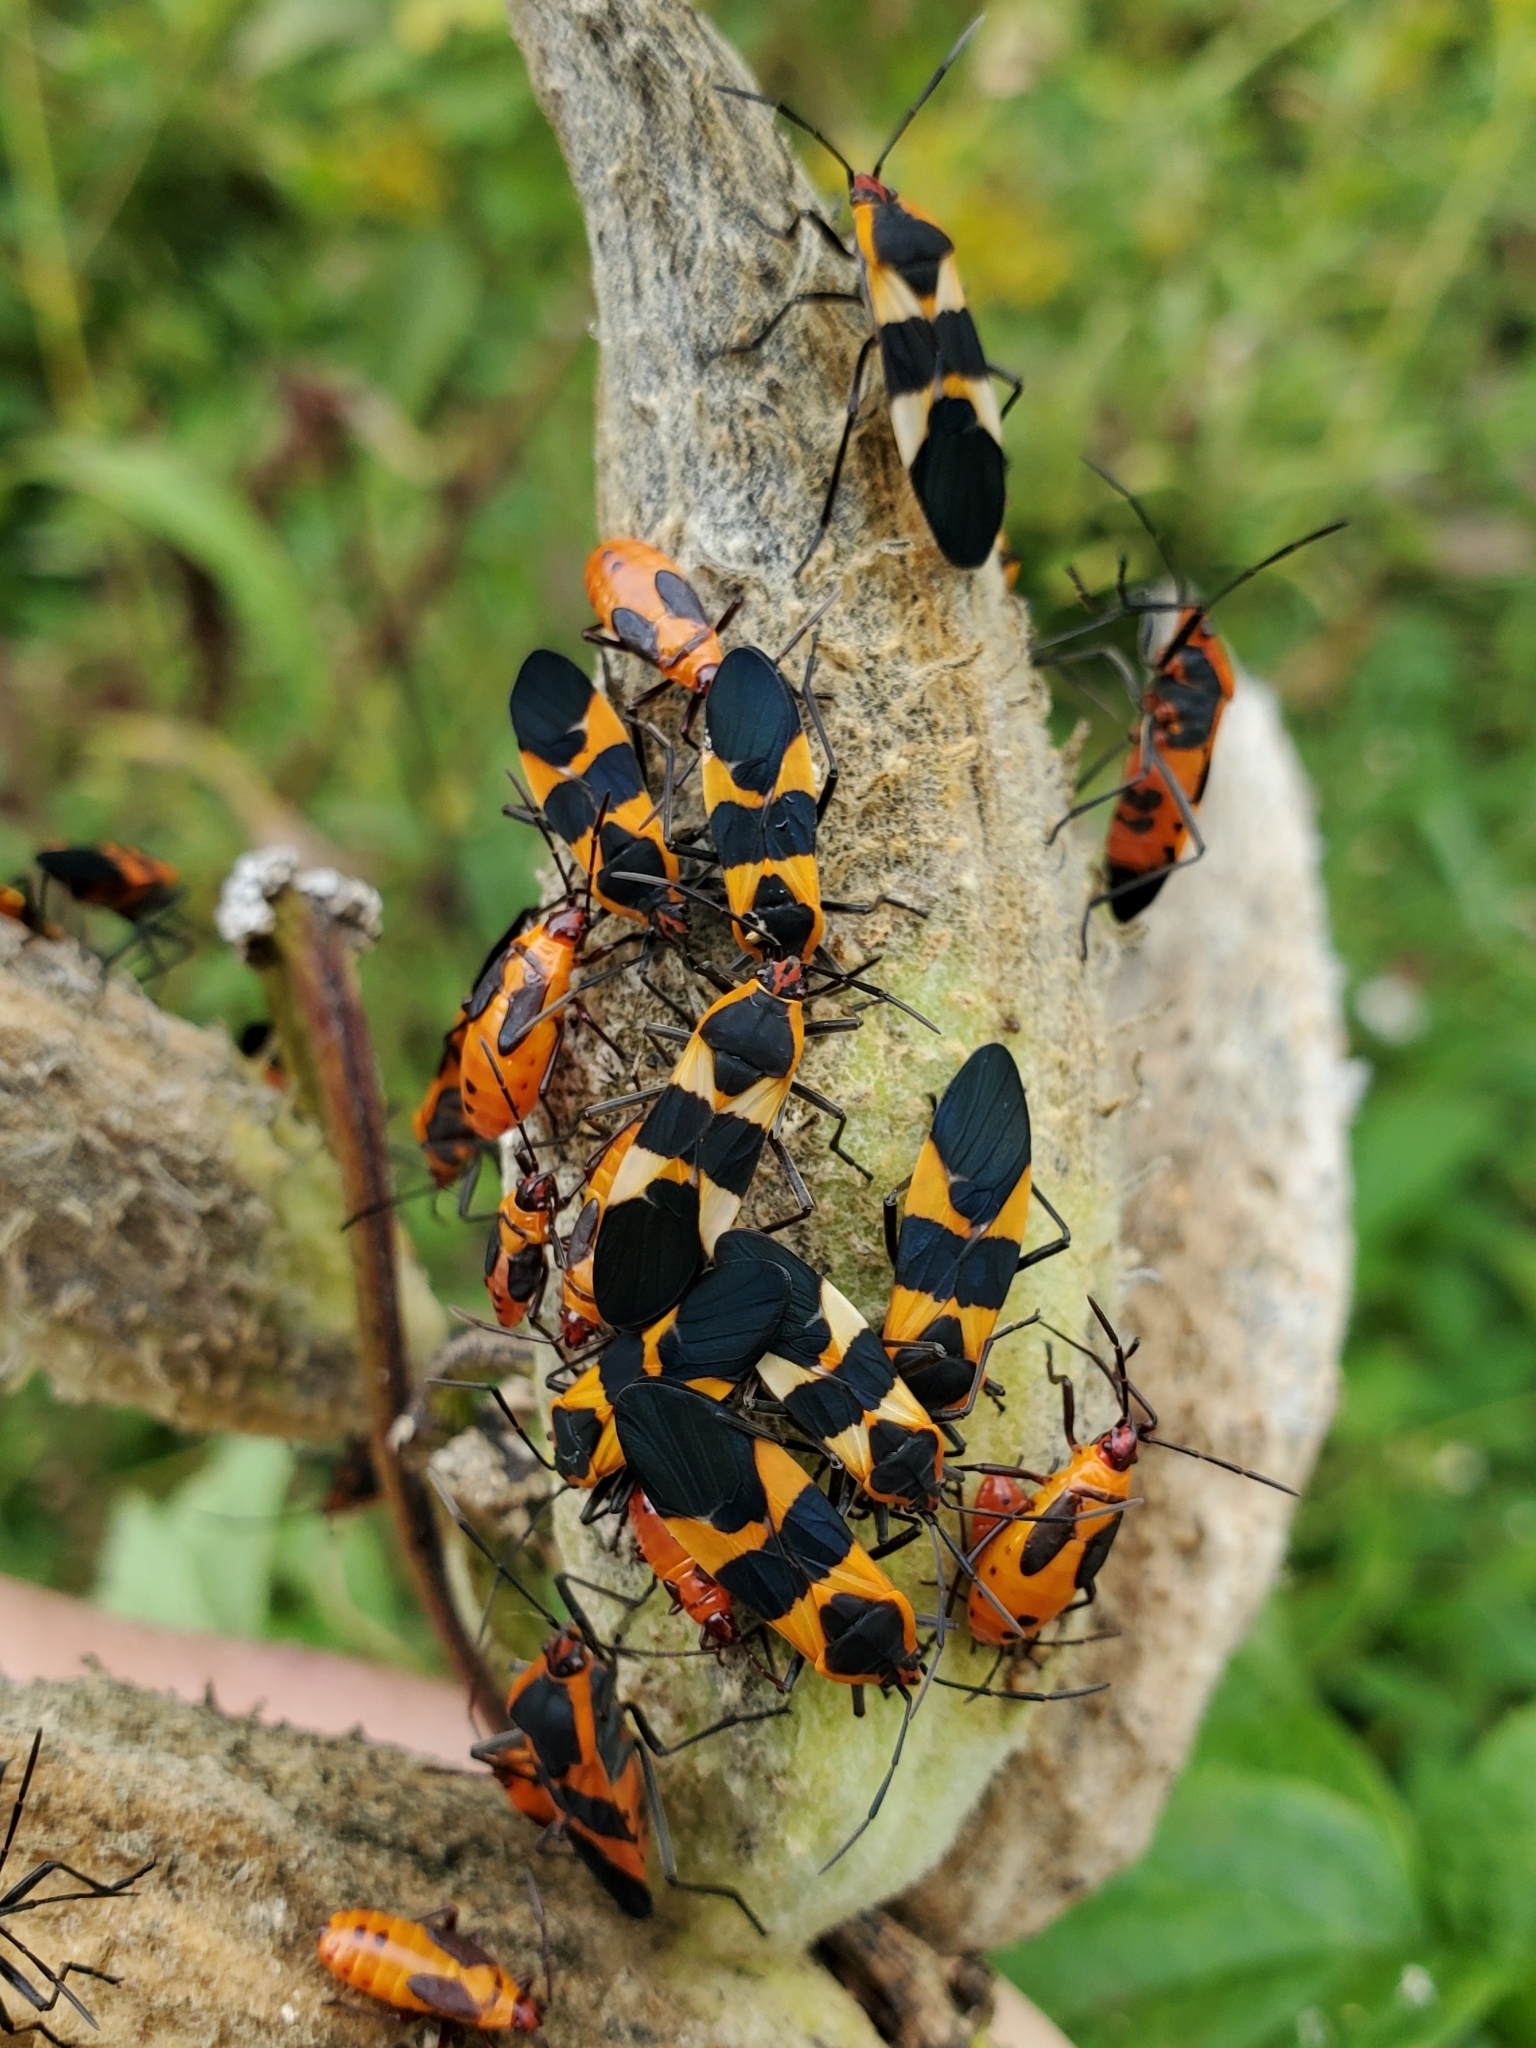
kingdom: Animalia
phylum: Arthropoda
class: Insecta
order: Hemiptera
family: Lygaeidae
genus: Oncopeltus
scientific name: Oncopeltus fasciatus
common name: Large milkweed bug
